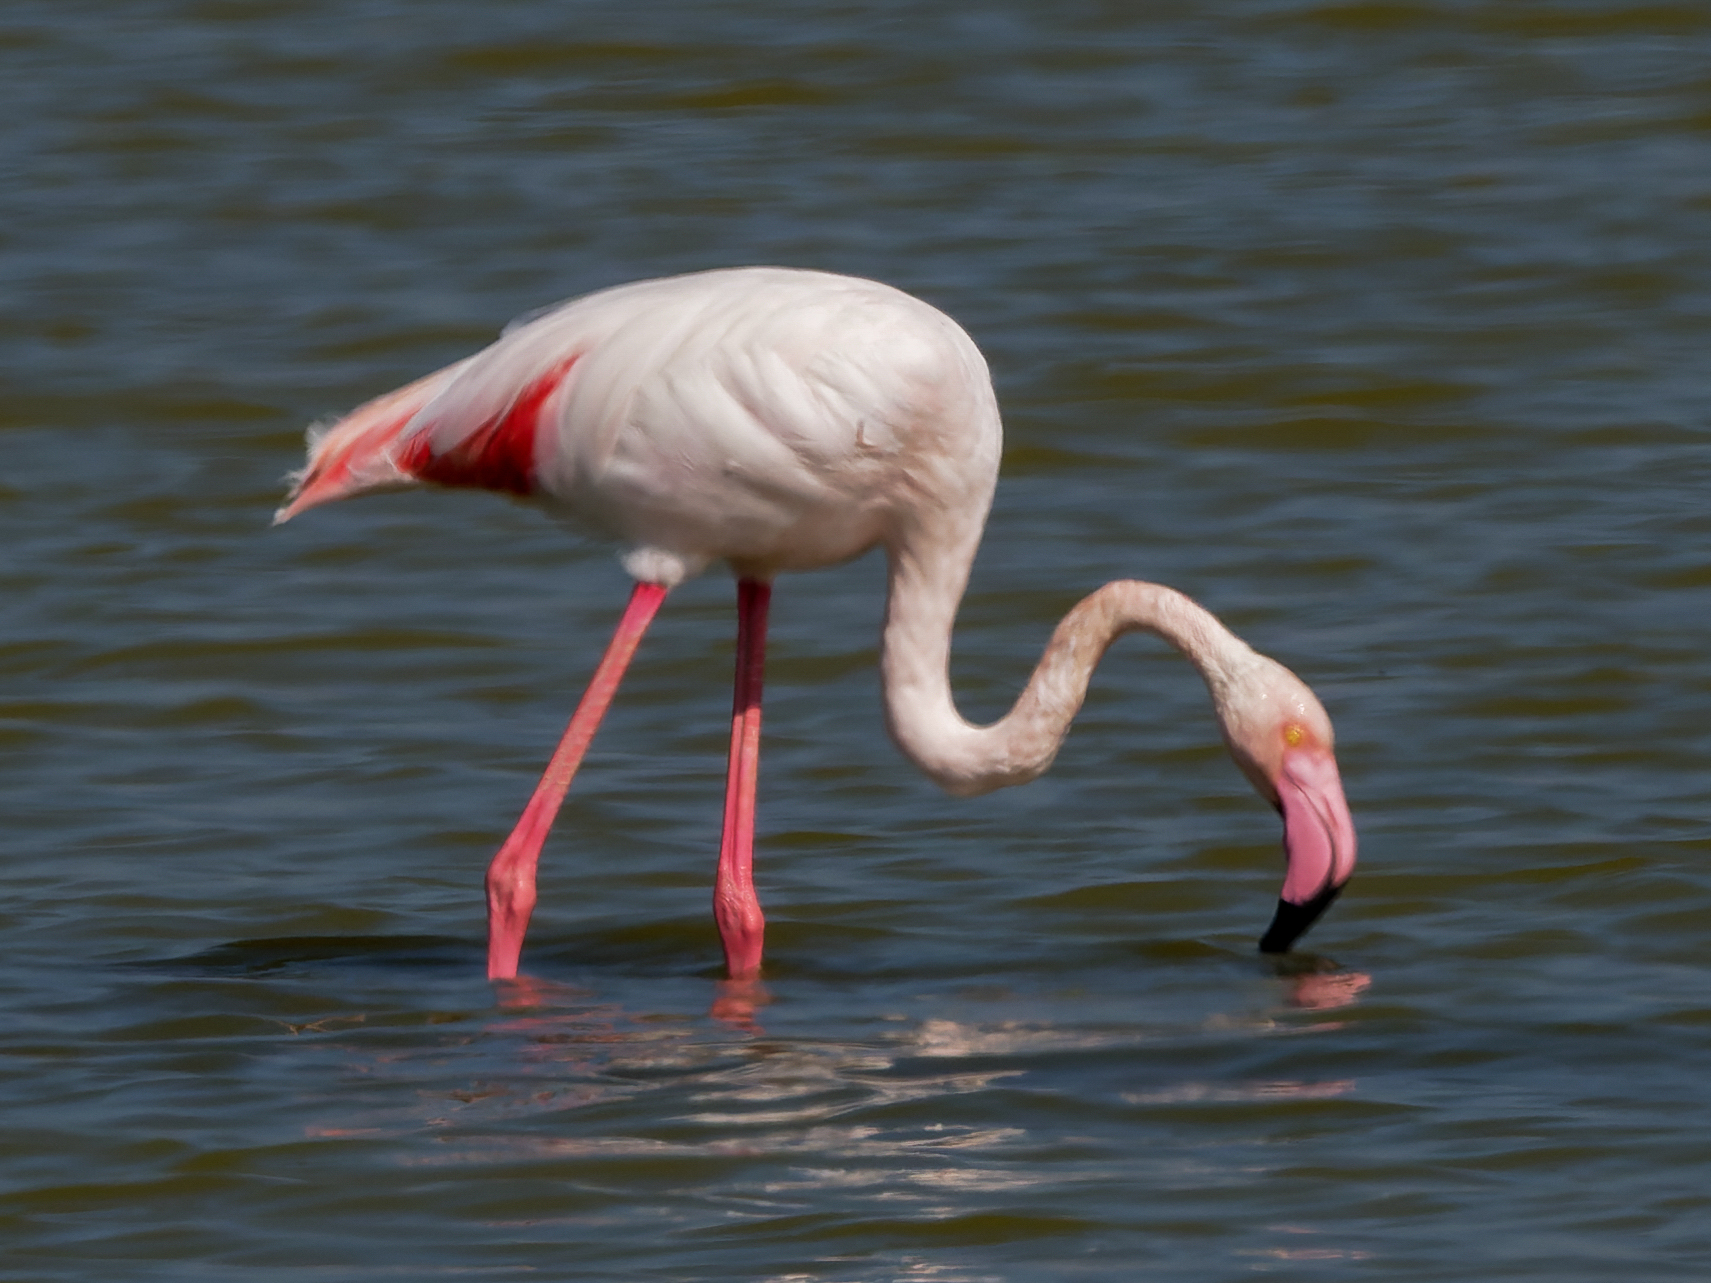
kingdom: Animalia
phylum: Chordata
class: Aves
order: Phoenicopteriformes
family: Phoenicopteridae
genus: Phoenicopterus
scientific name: Phoenicopterus roseus
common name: Greater flamingo
